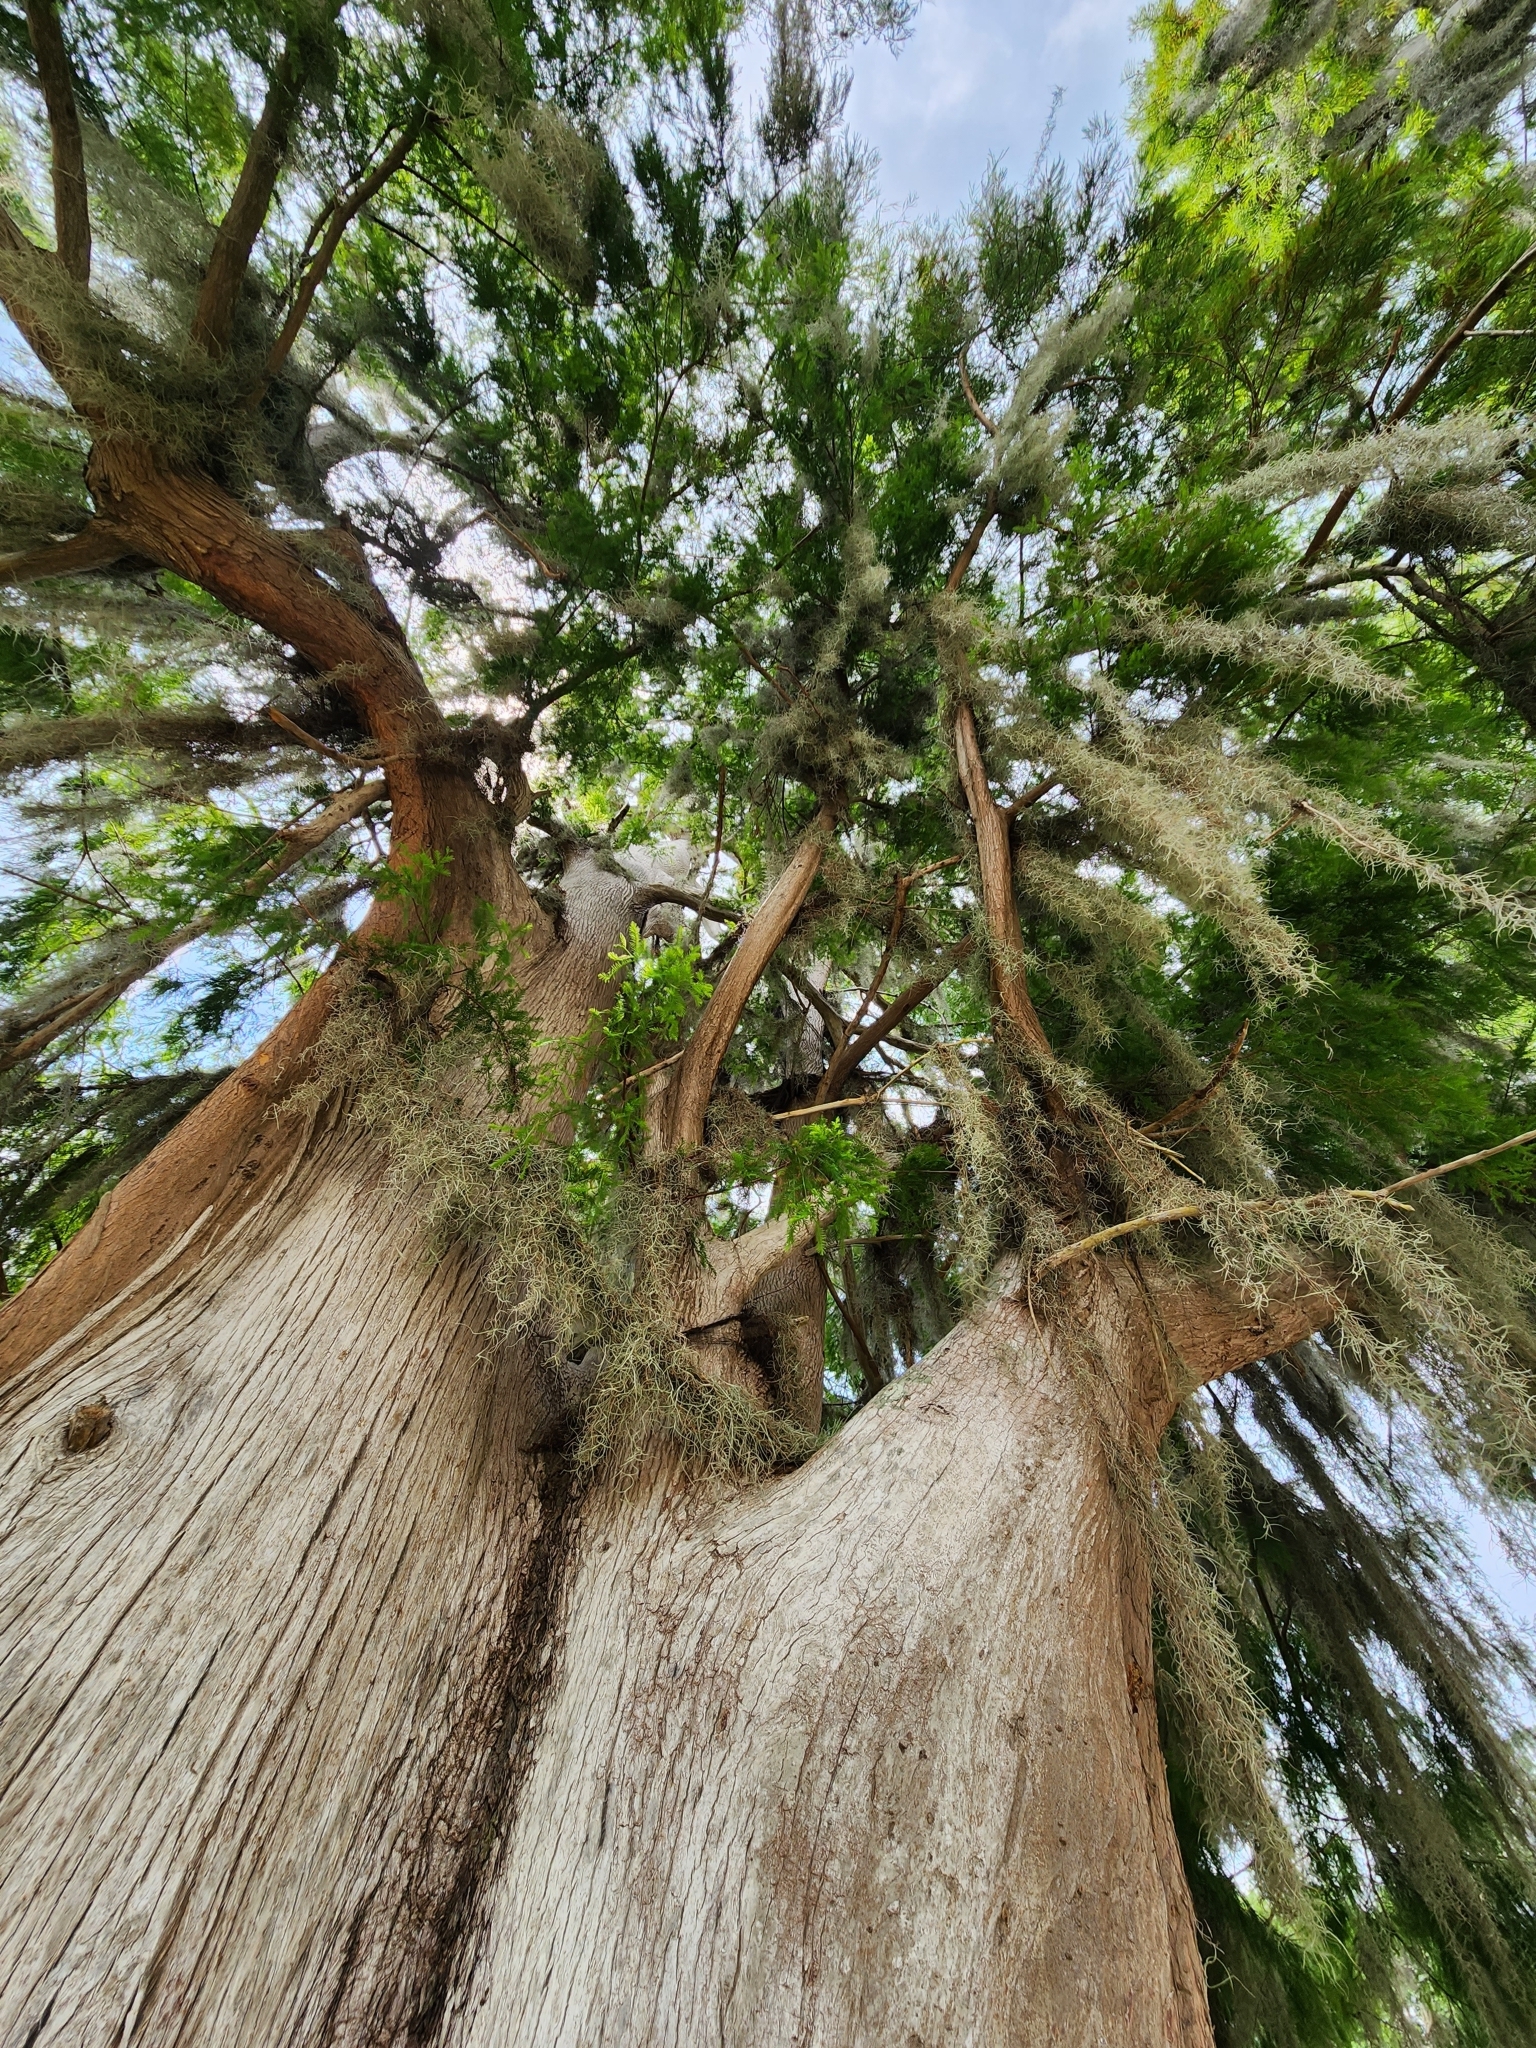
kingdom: Plantae
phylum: Tracheophyta
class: Pinopsida
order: Pinales
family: Cupressaceae
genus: Taxodium
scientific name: Taxodium distichum
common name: Bald cypress
